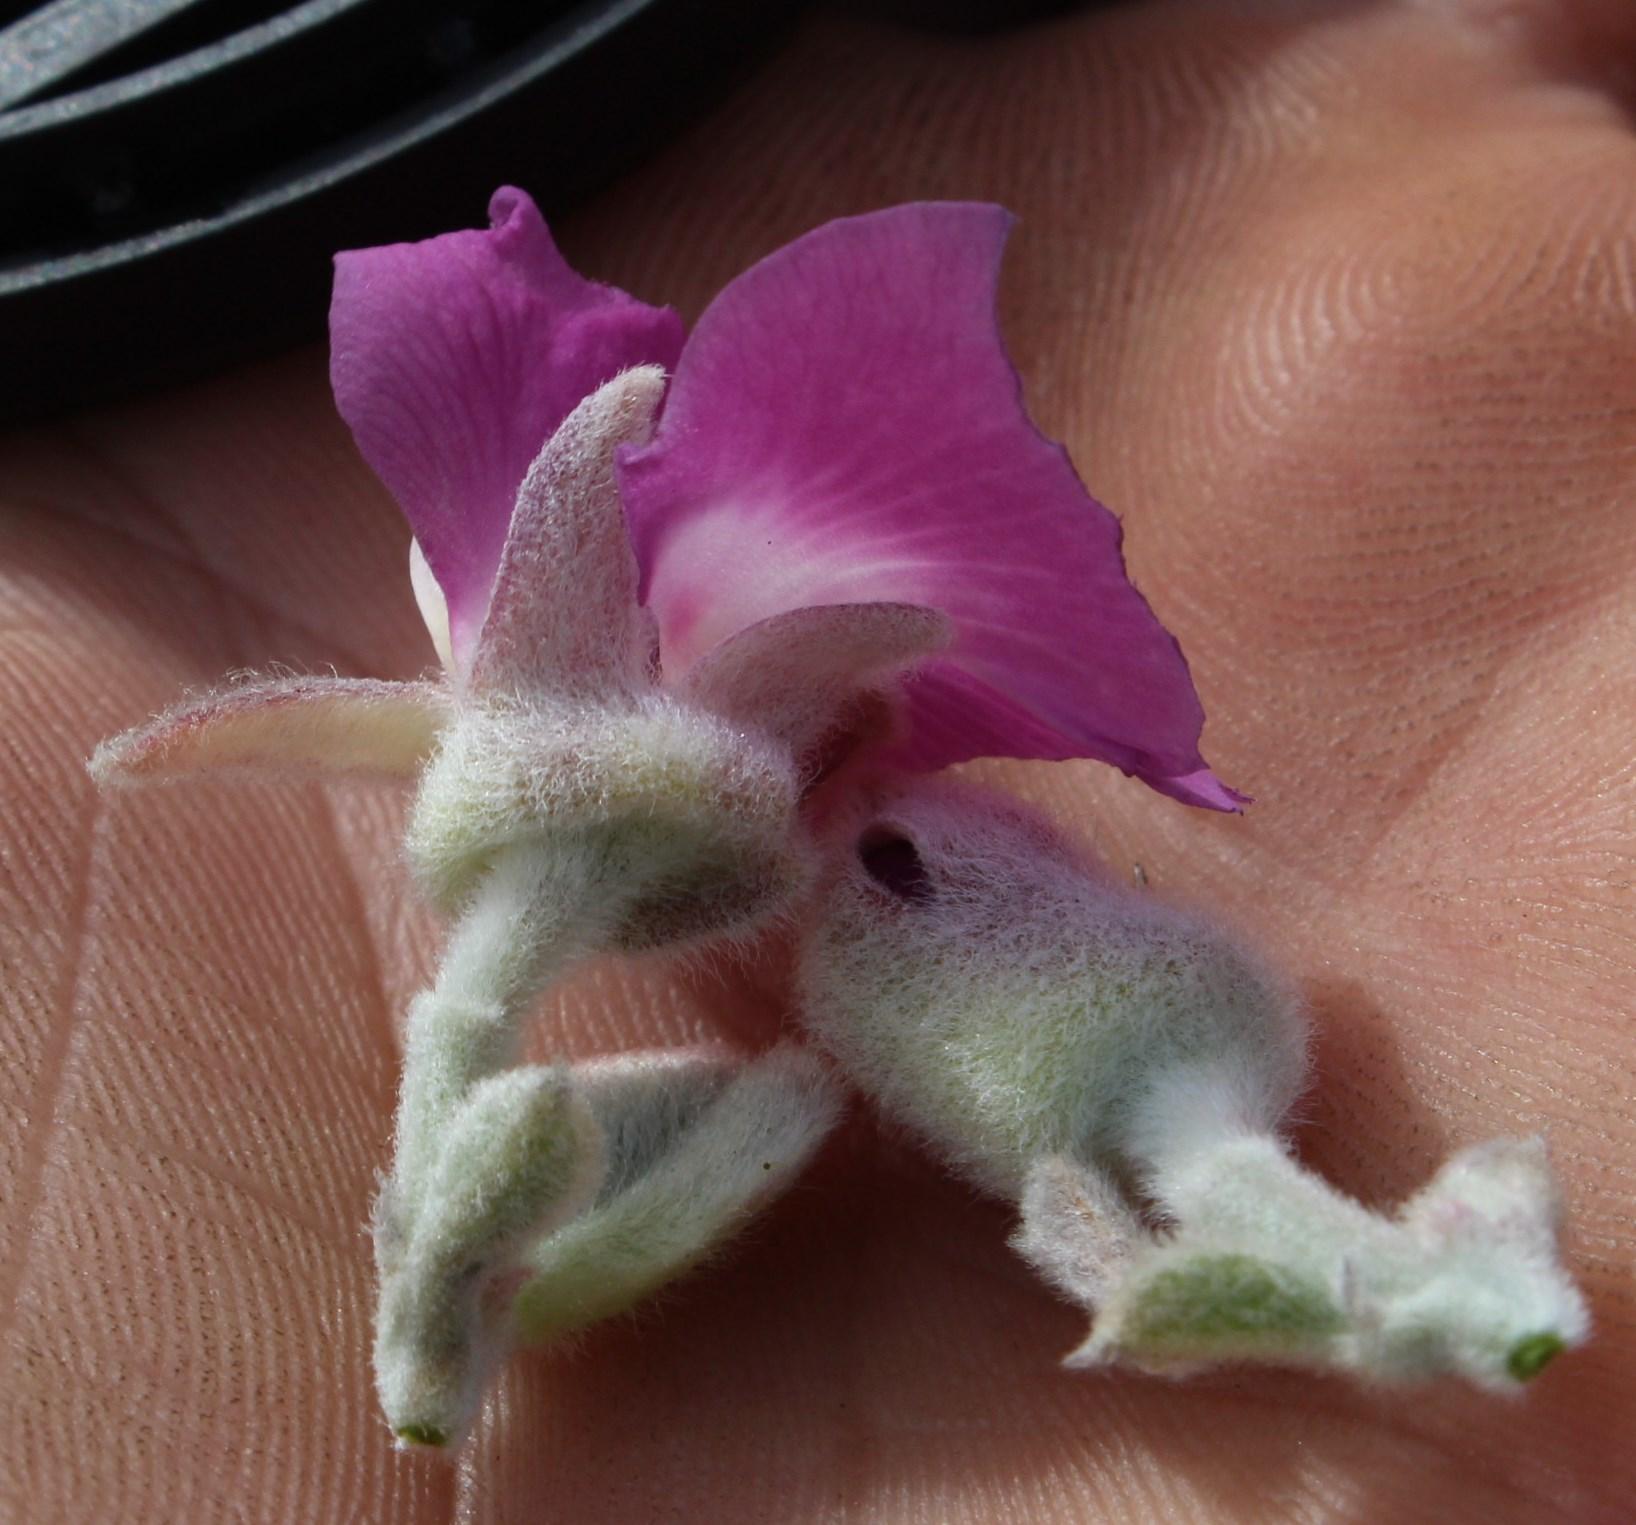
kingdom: Plantae
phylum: Tracheophyta
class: Magnoliopsida
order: Fabales
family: Fabaceae
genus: Podalyria
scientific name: Podalyria hirsuta
